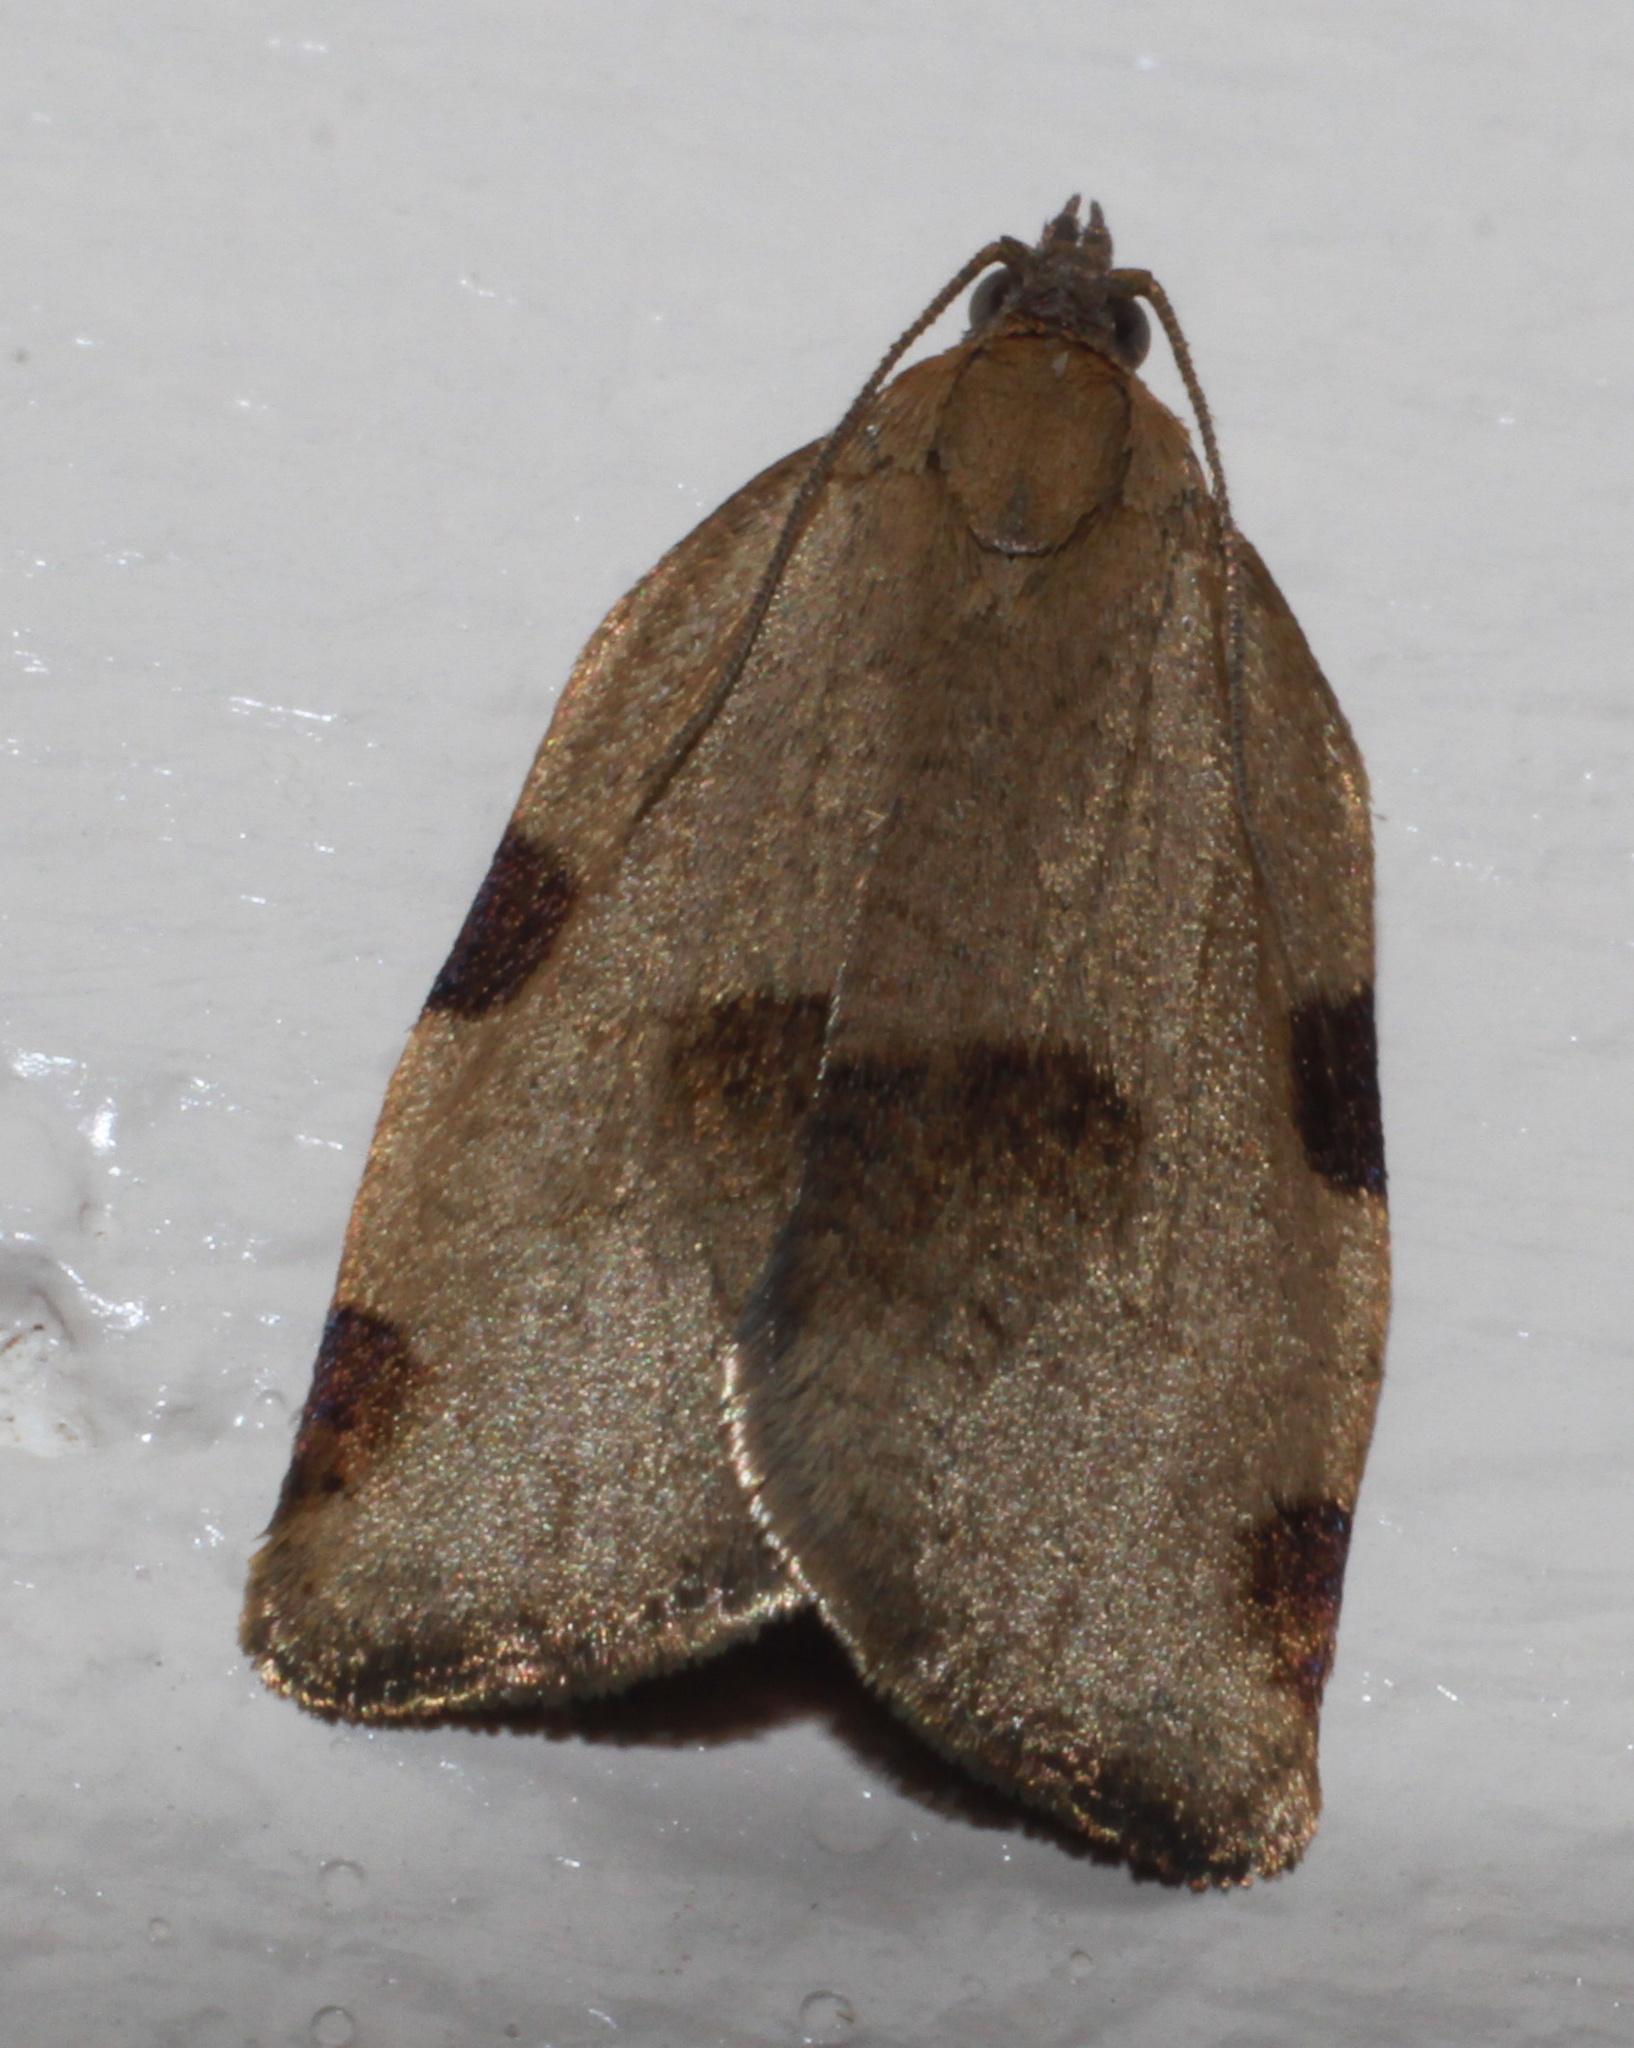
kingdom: Animalia
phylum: Arthropoda
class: Insecta
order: Lepidoptera
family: Tortricidae
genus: Lozotaenia
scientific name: Lozotaenia forsterana
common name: Large ivy twist
